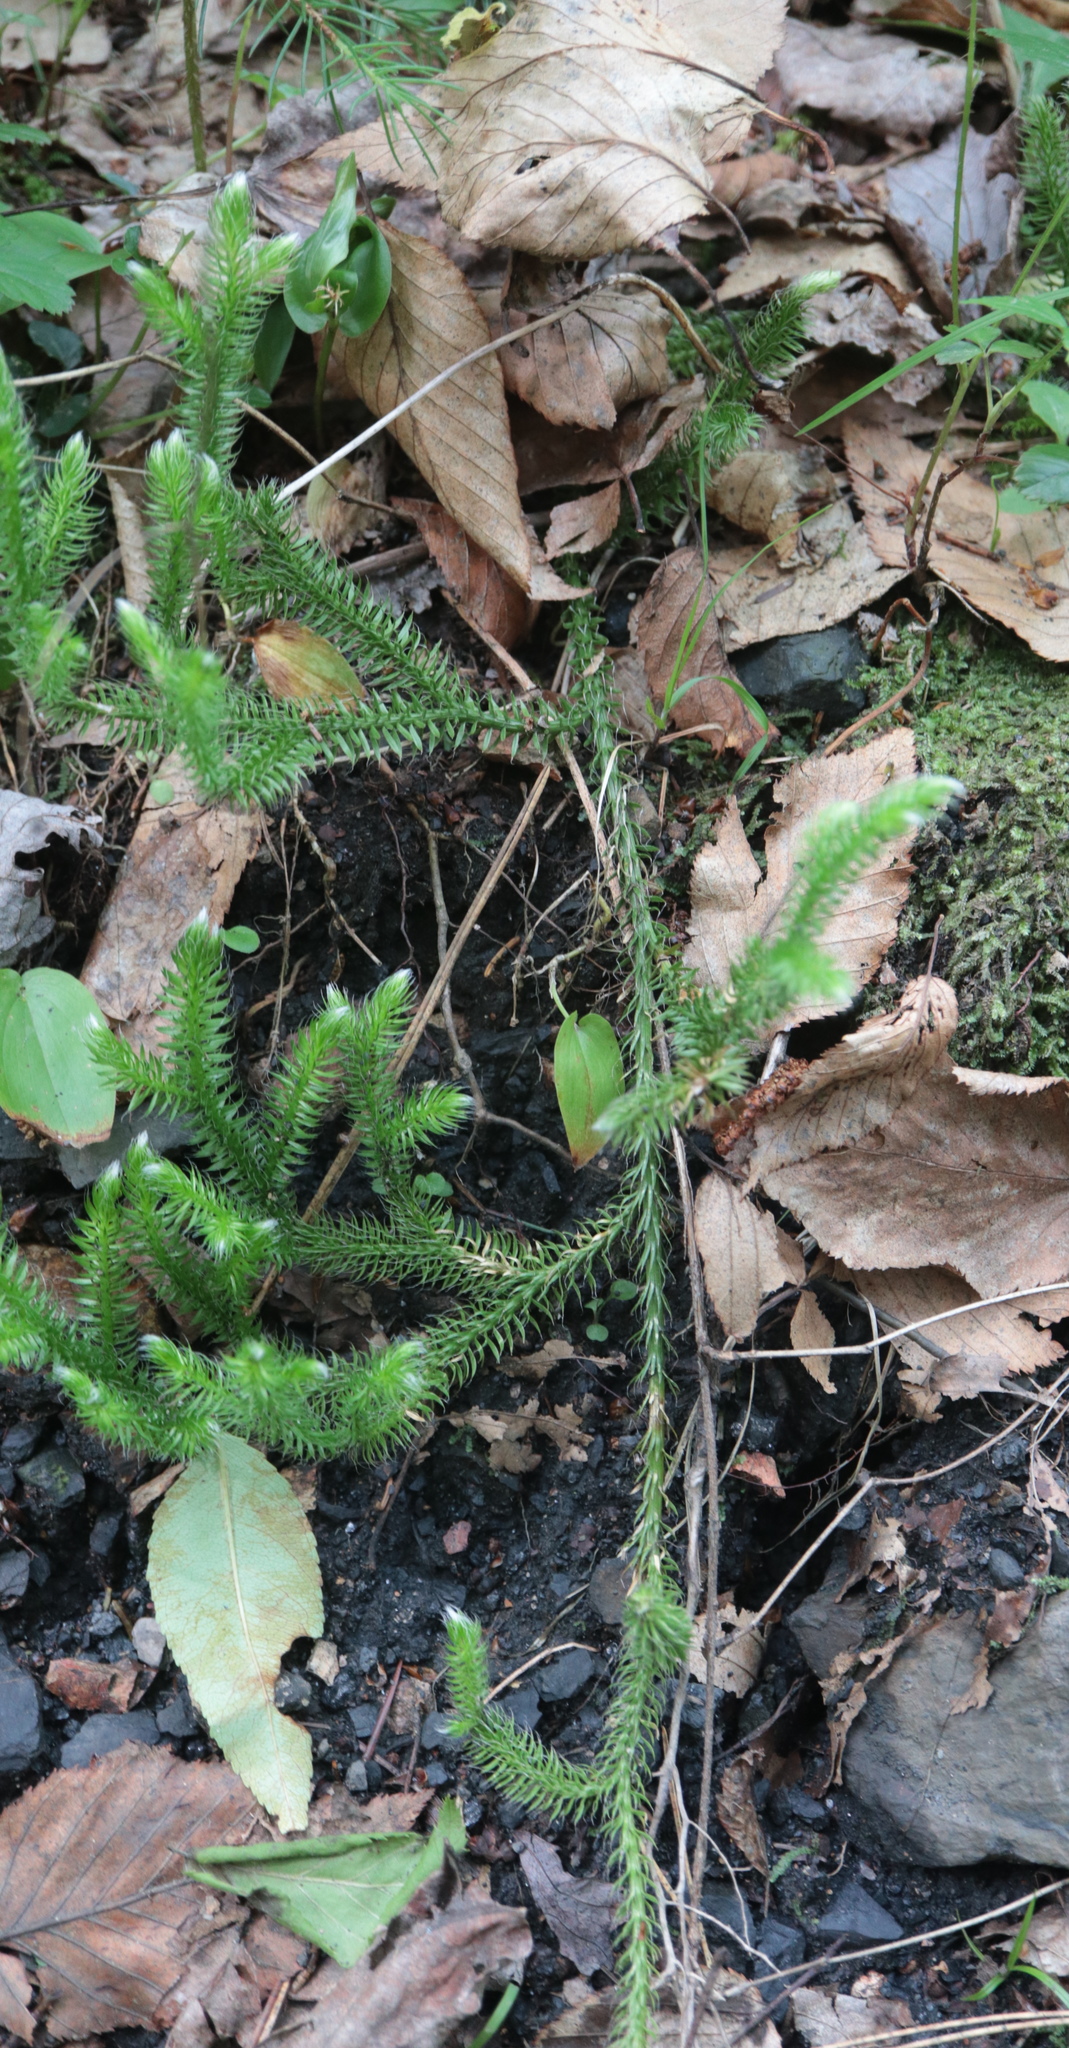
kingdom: Plantae
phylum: Tracheophyta
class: Lycopodiopsida
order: Lycopodiales
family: Lycopodiaceae
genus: Lycopodium
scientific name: Lycopodium clavatum
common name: Stag's-horn clubmoss
